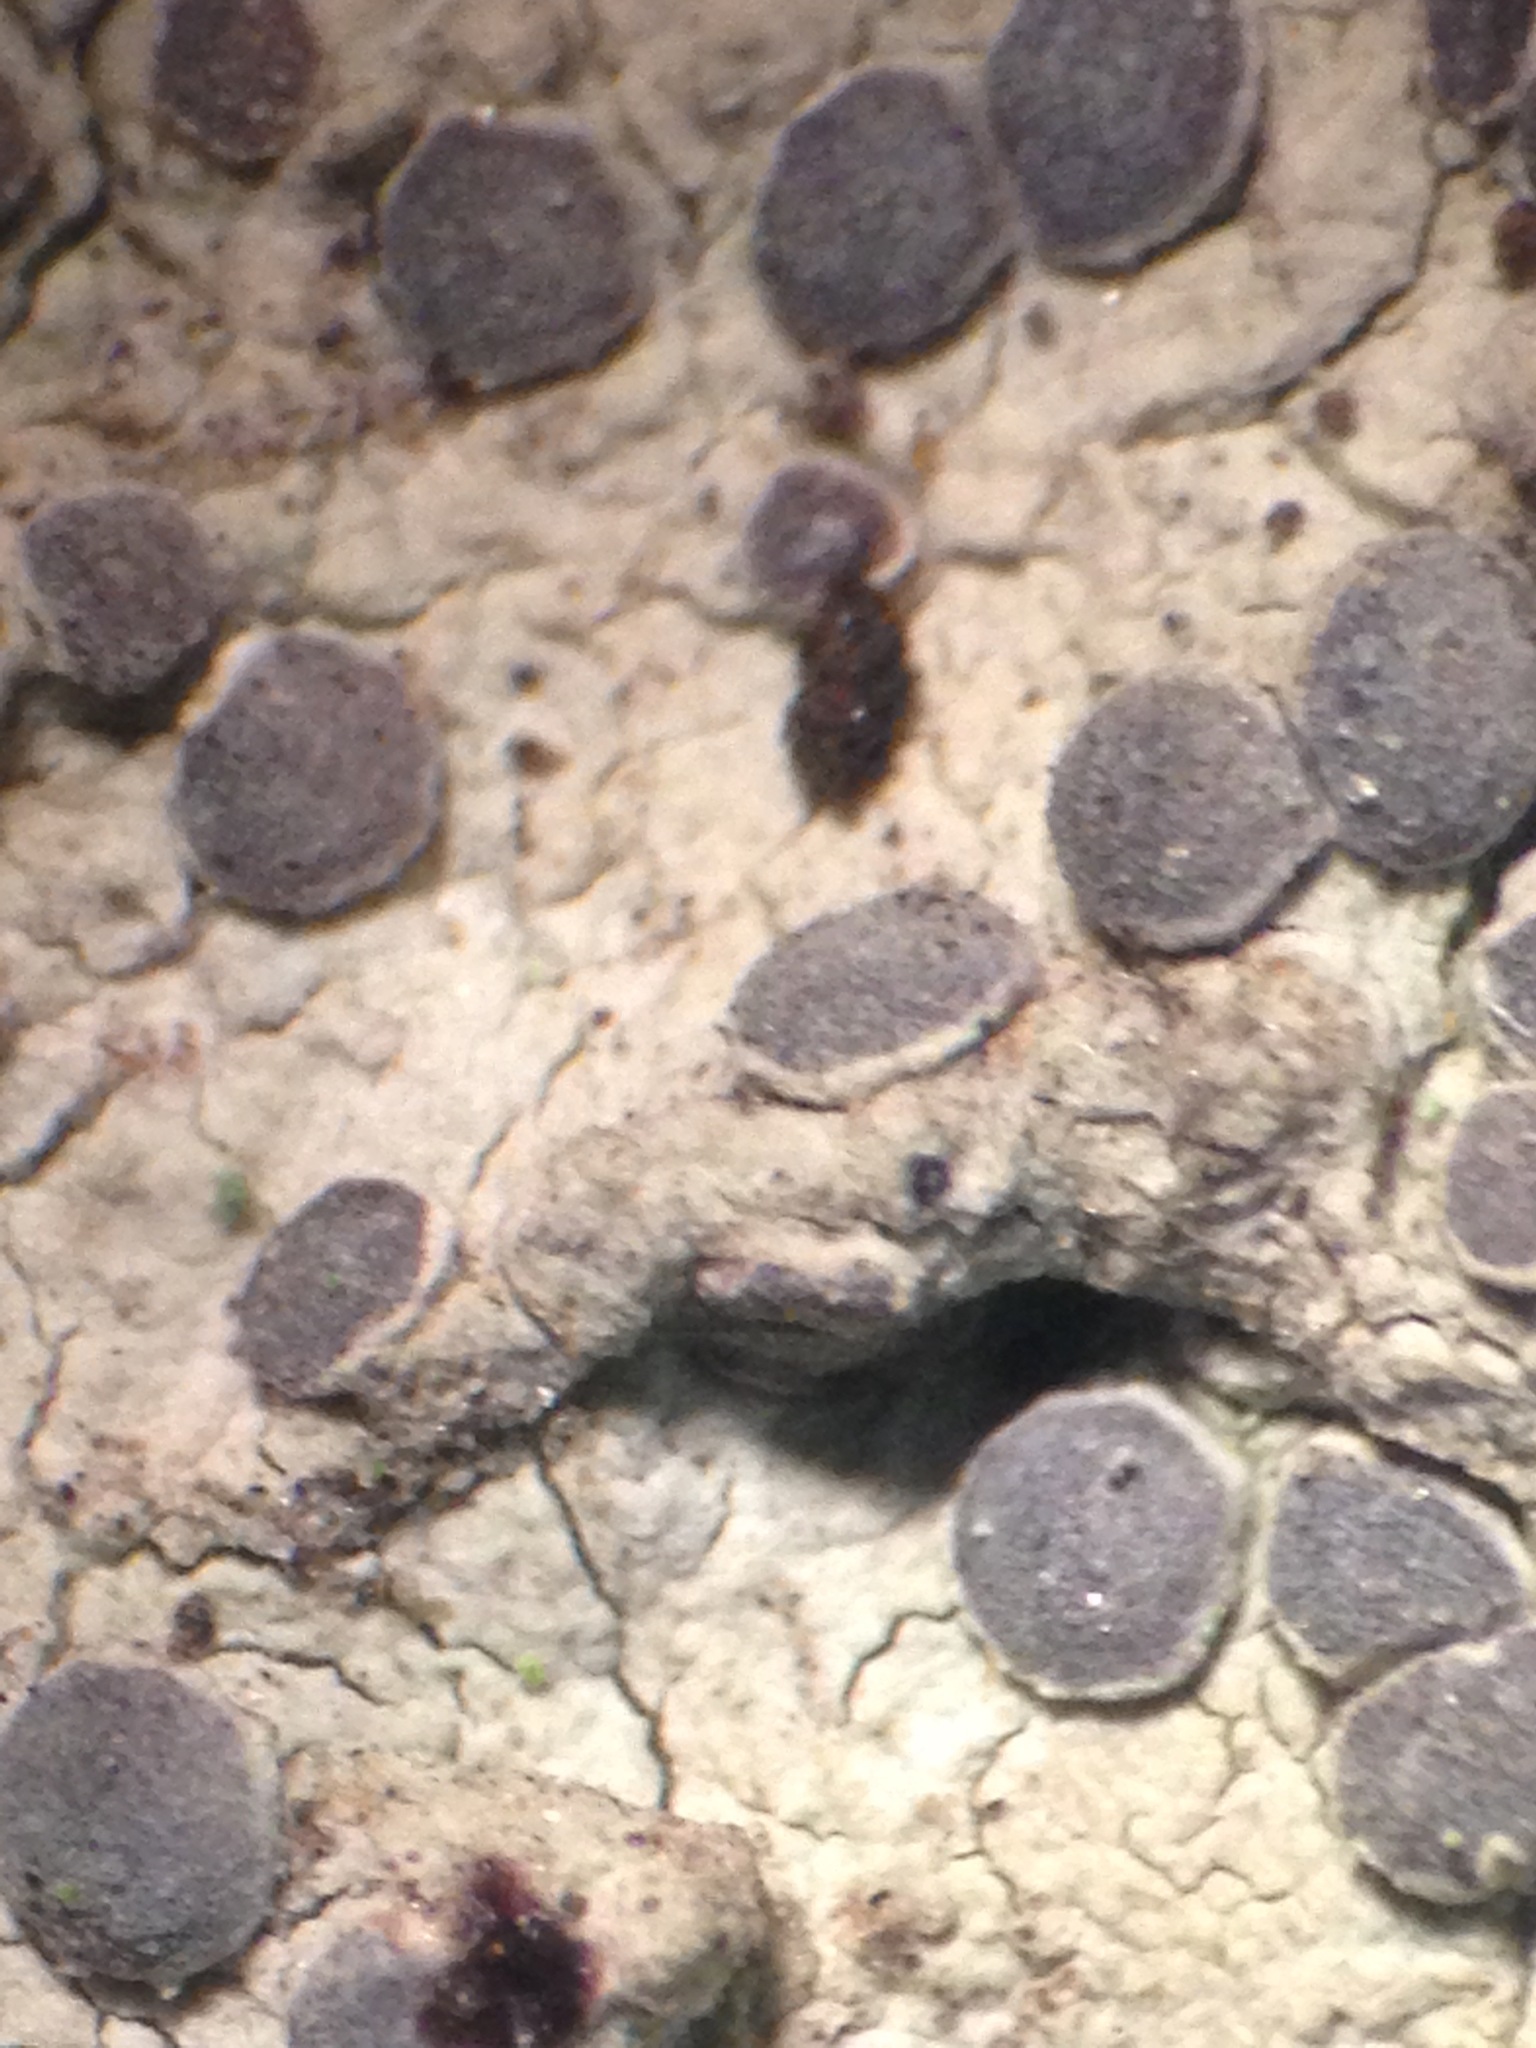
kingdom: Fungi
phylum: Ascomycota
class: Arthoniomycetes
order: Arthoniales
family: Roccellaceae
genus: Sigridea
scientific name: Sigridea californica
